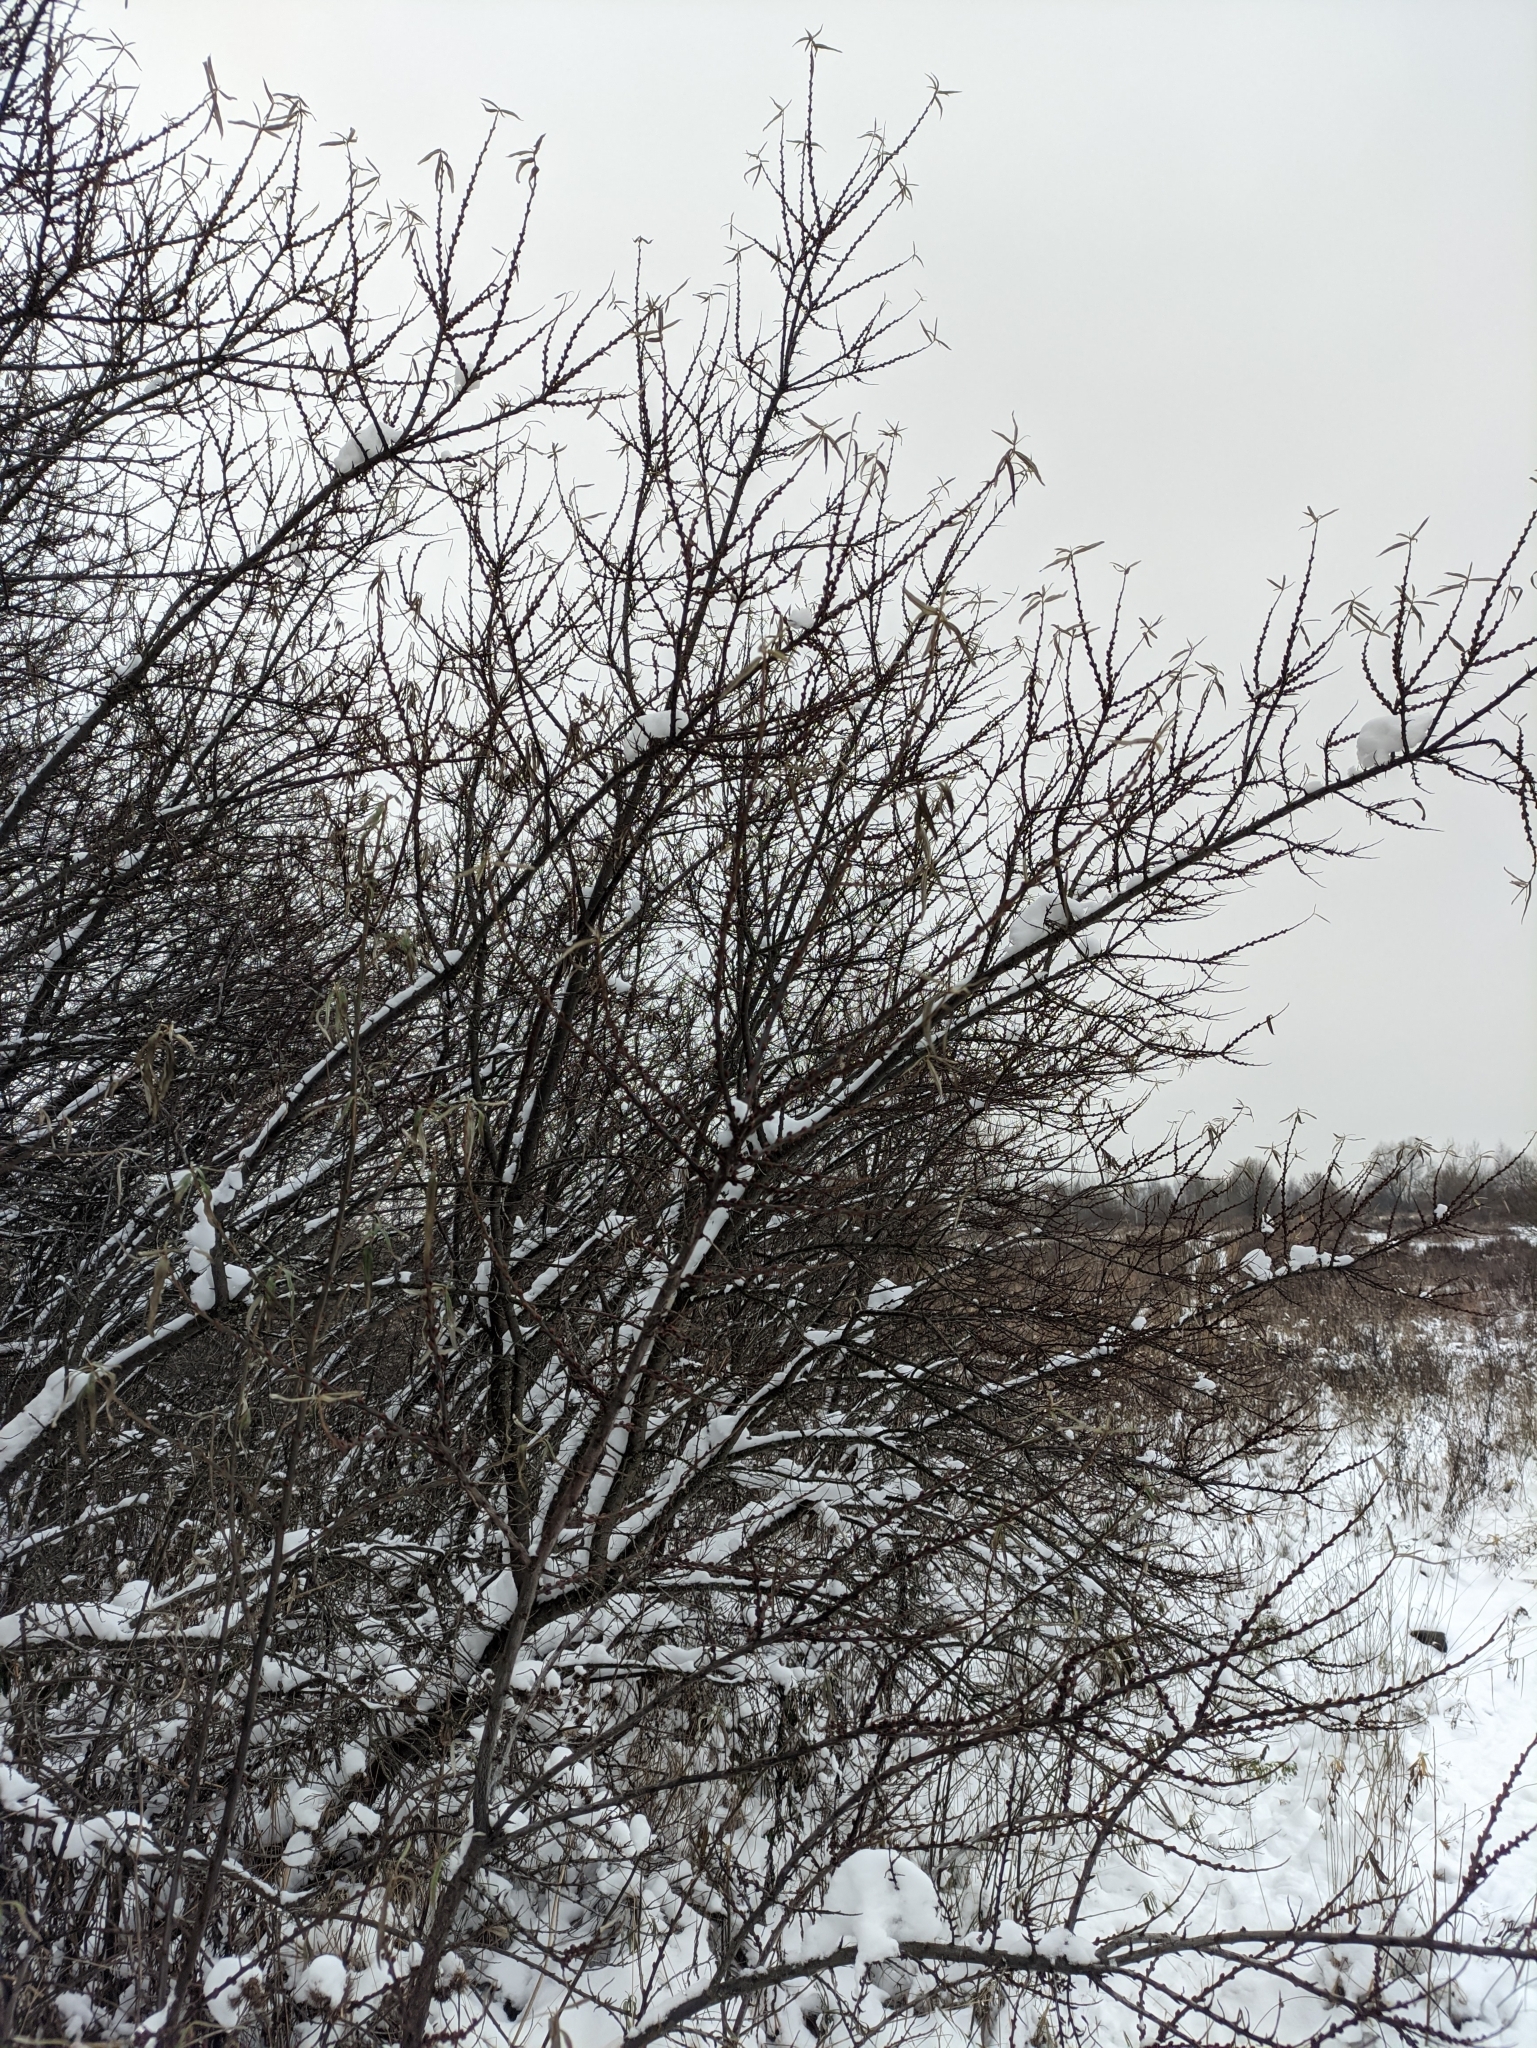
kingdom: Plantae
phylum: Tracheophyta
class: Magnoliopsida
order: Rosales
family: Elaeagnaceae
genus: Hippophae
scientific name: Hippophae rhamnoides
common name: Sea-buckthorn
